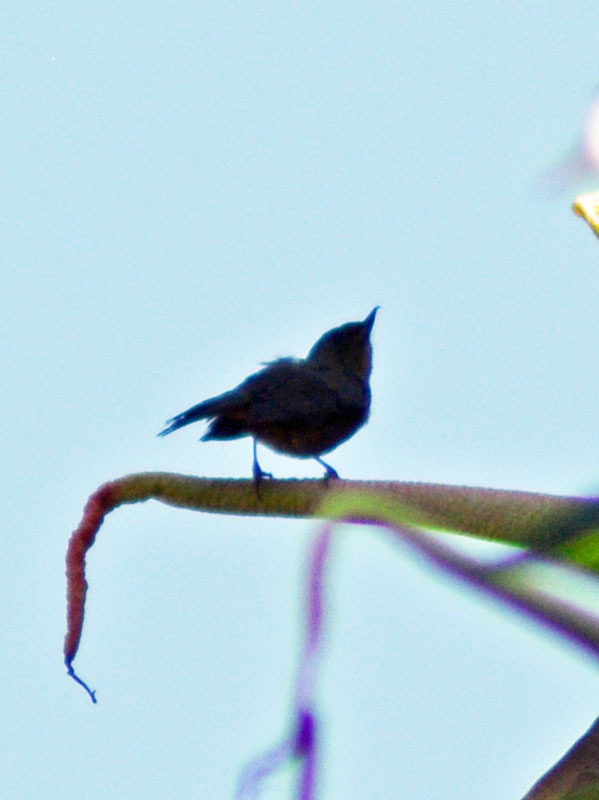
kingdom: Animalia
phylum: Chordata
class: Aves
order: Passeriformes
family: Thraupidae
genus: Diglossa
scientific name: Diglossa baritula
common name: Cinnamon-bellied flowerpiercer
